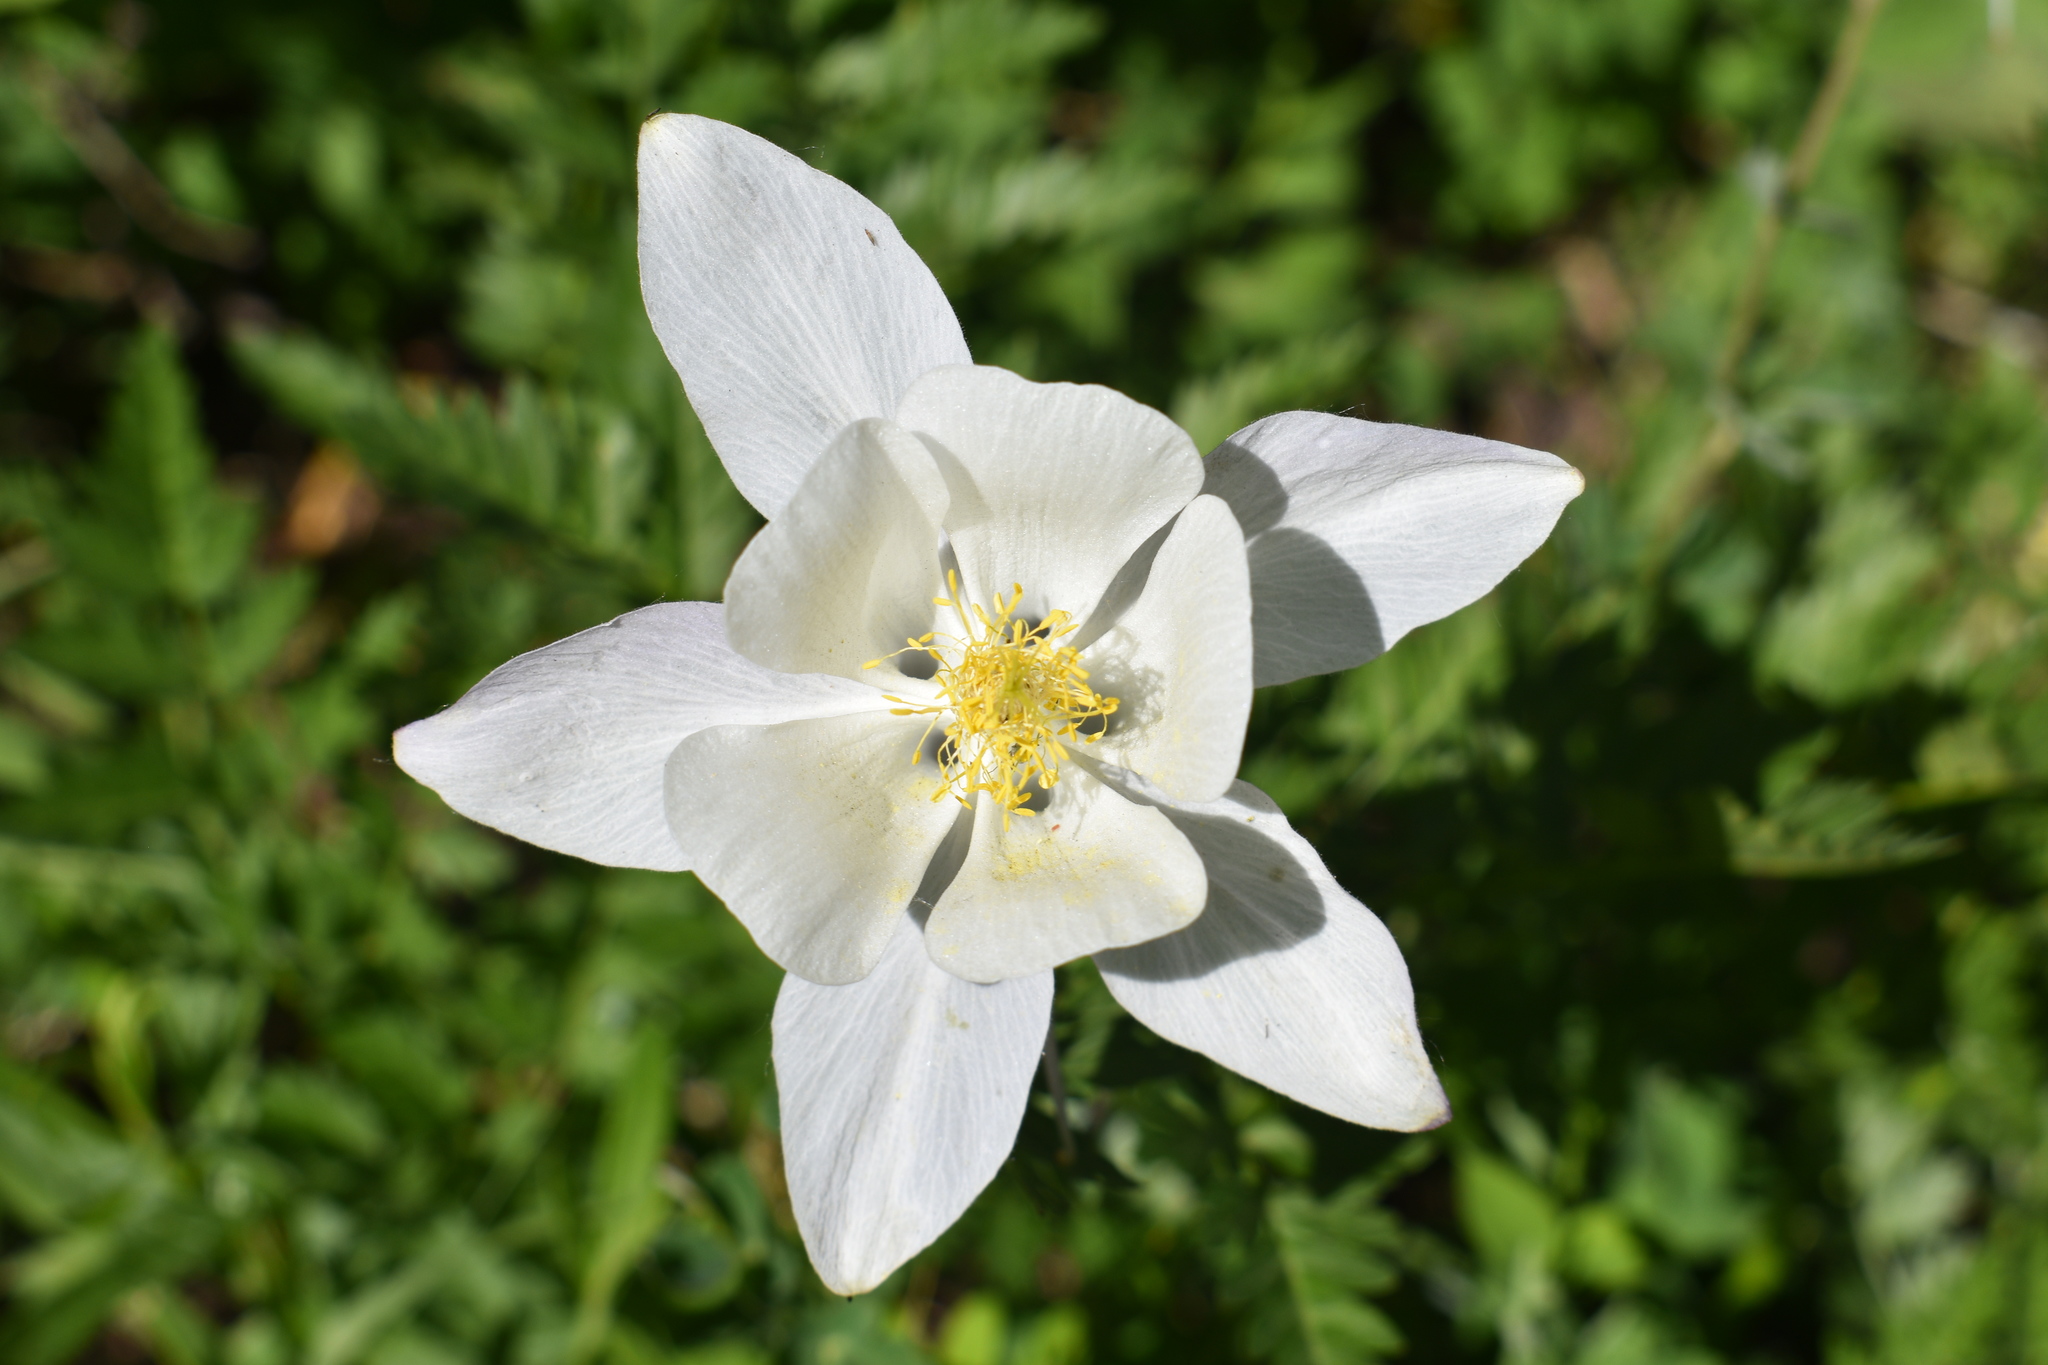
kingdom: Plantae
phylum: Tracheophyta
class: Magnoliopsida
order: Ranunculales
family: Ranunculaceae
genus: Aquilegia
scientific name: Aquilegia coerulea
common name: Rocky mountain columbine
